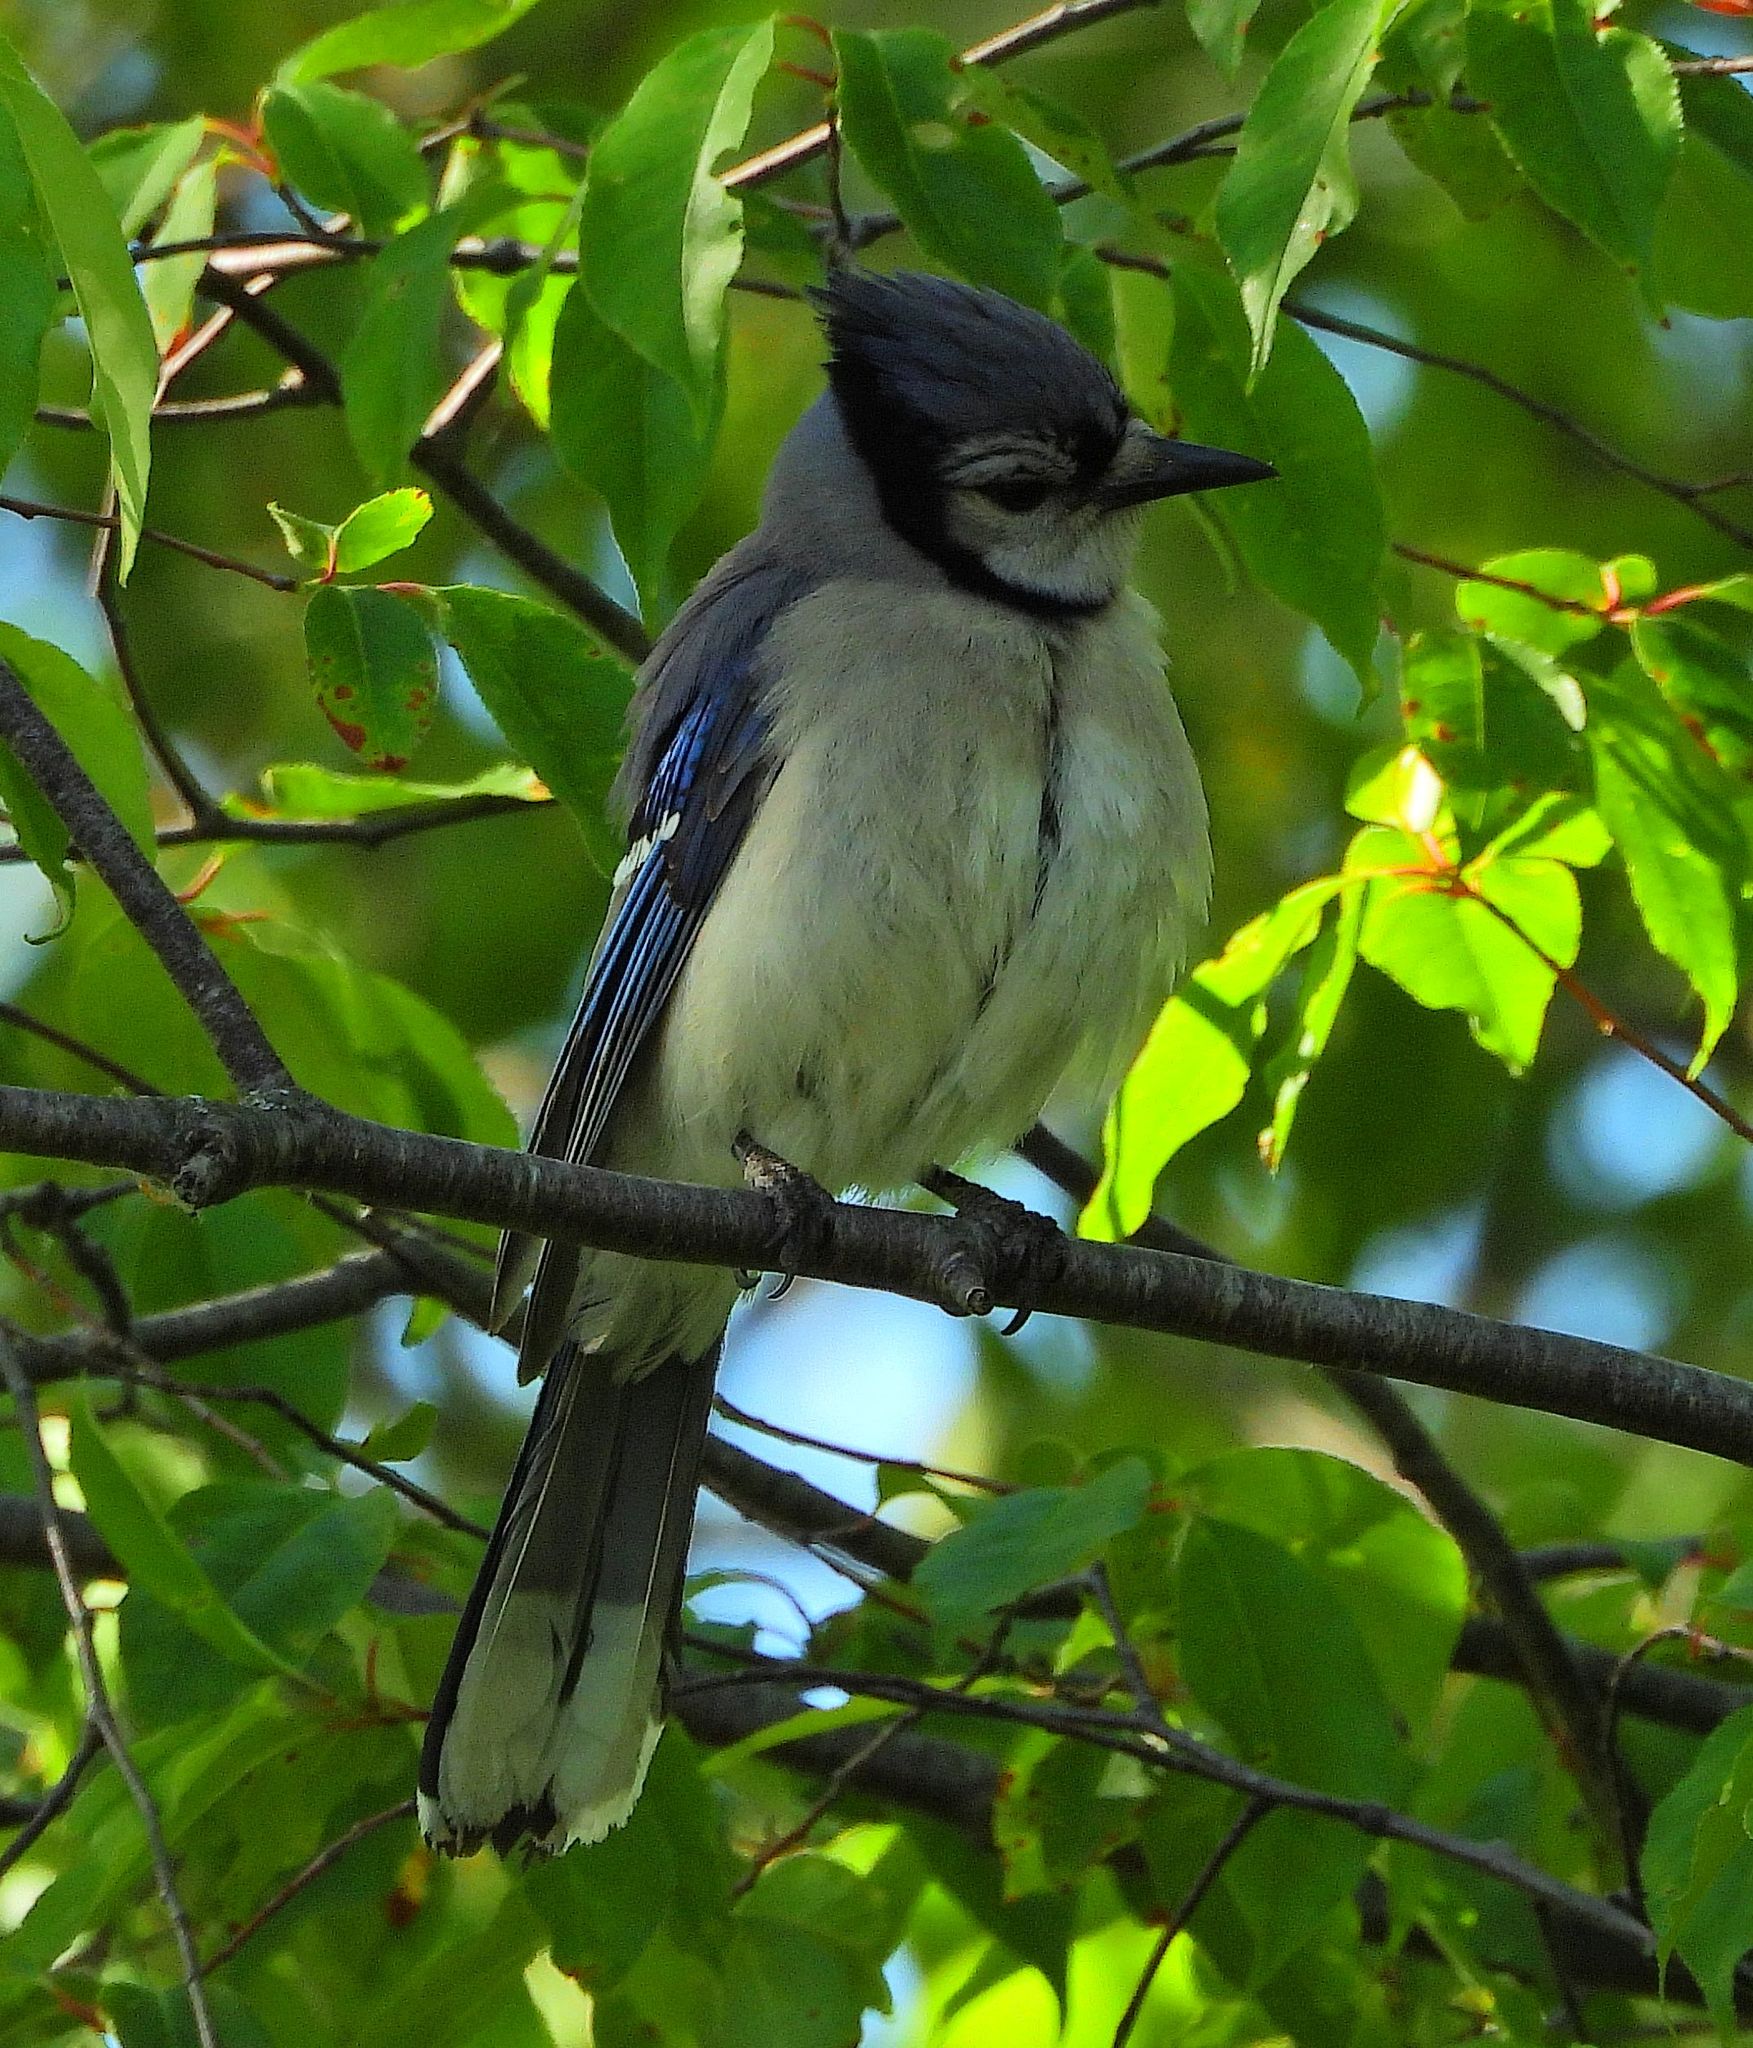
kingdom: Animalia
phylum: Chordata
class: Aves
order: Passeriformes
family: Corvidae
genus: Cyanocitta
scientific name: Cyanocitta cristata
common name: Blue jay
